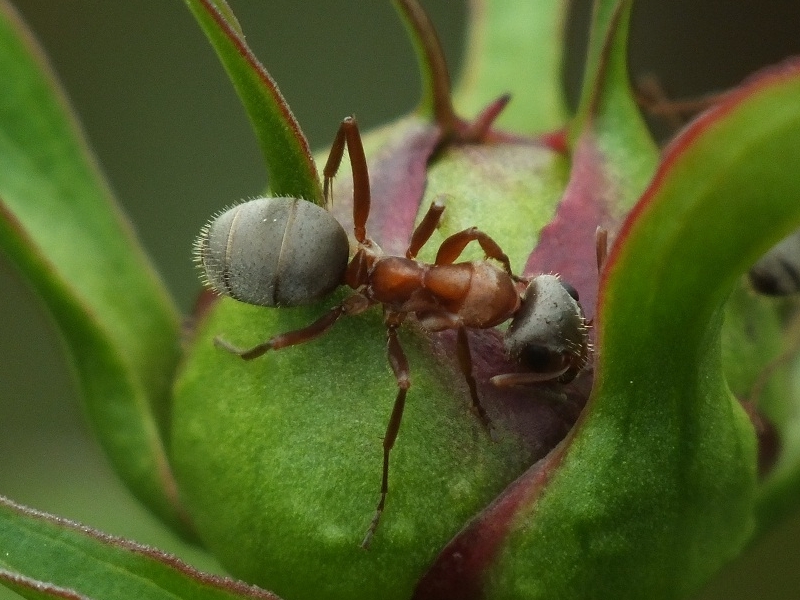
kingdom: Animalia
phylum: Arthropoda
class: Insecta
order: Hymenoptera
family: Formicidae
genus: Formica
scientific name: Formica cinerea
